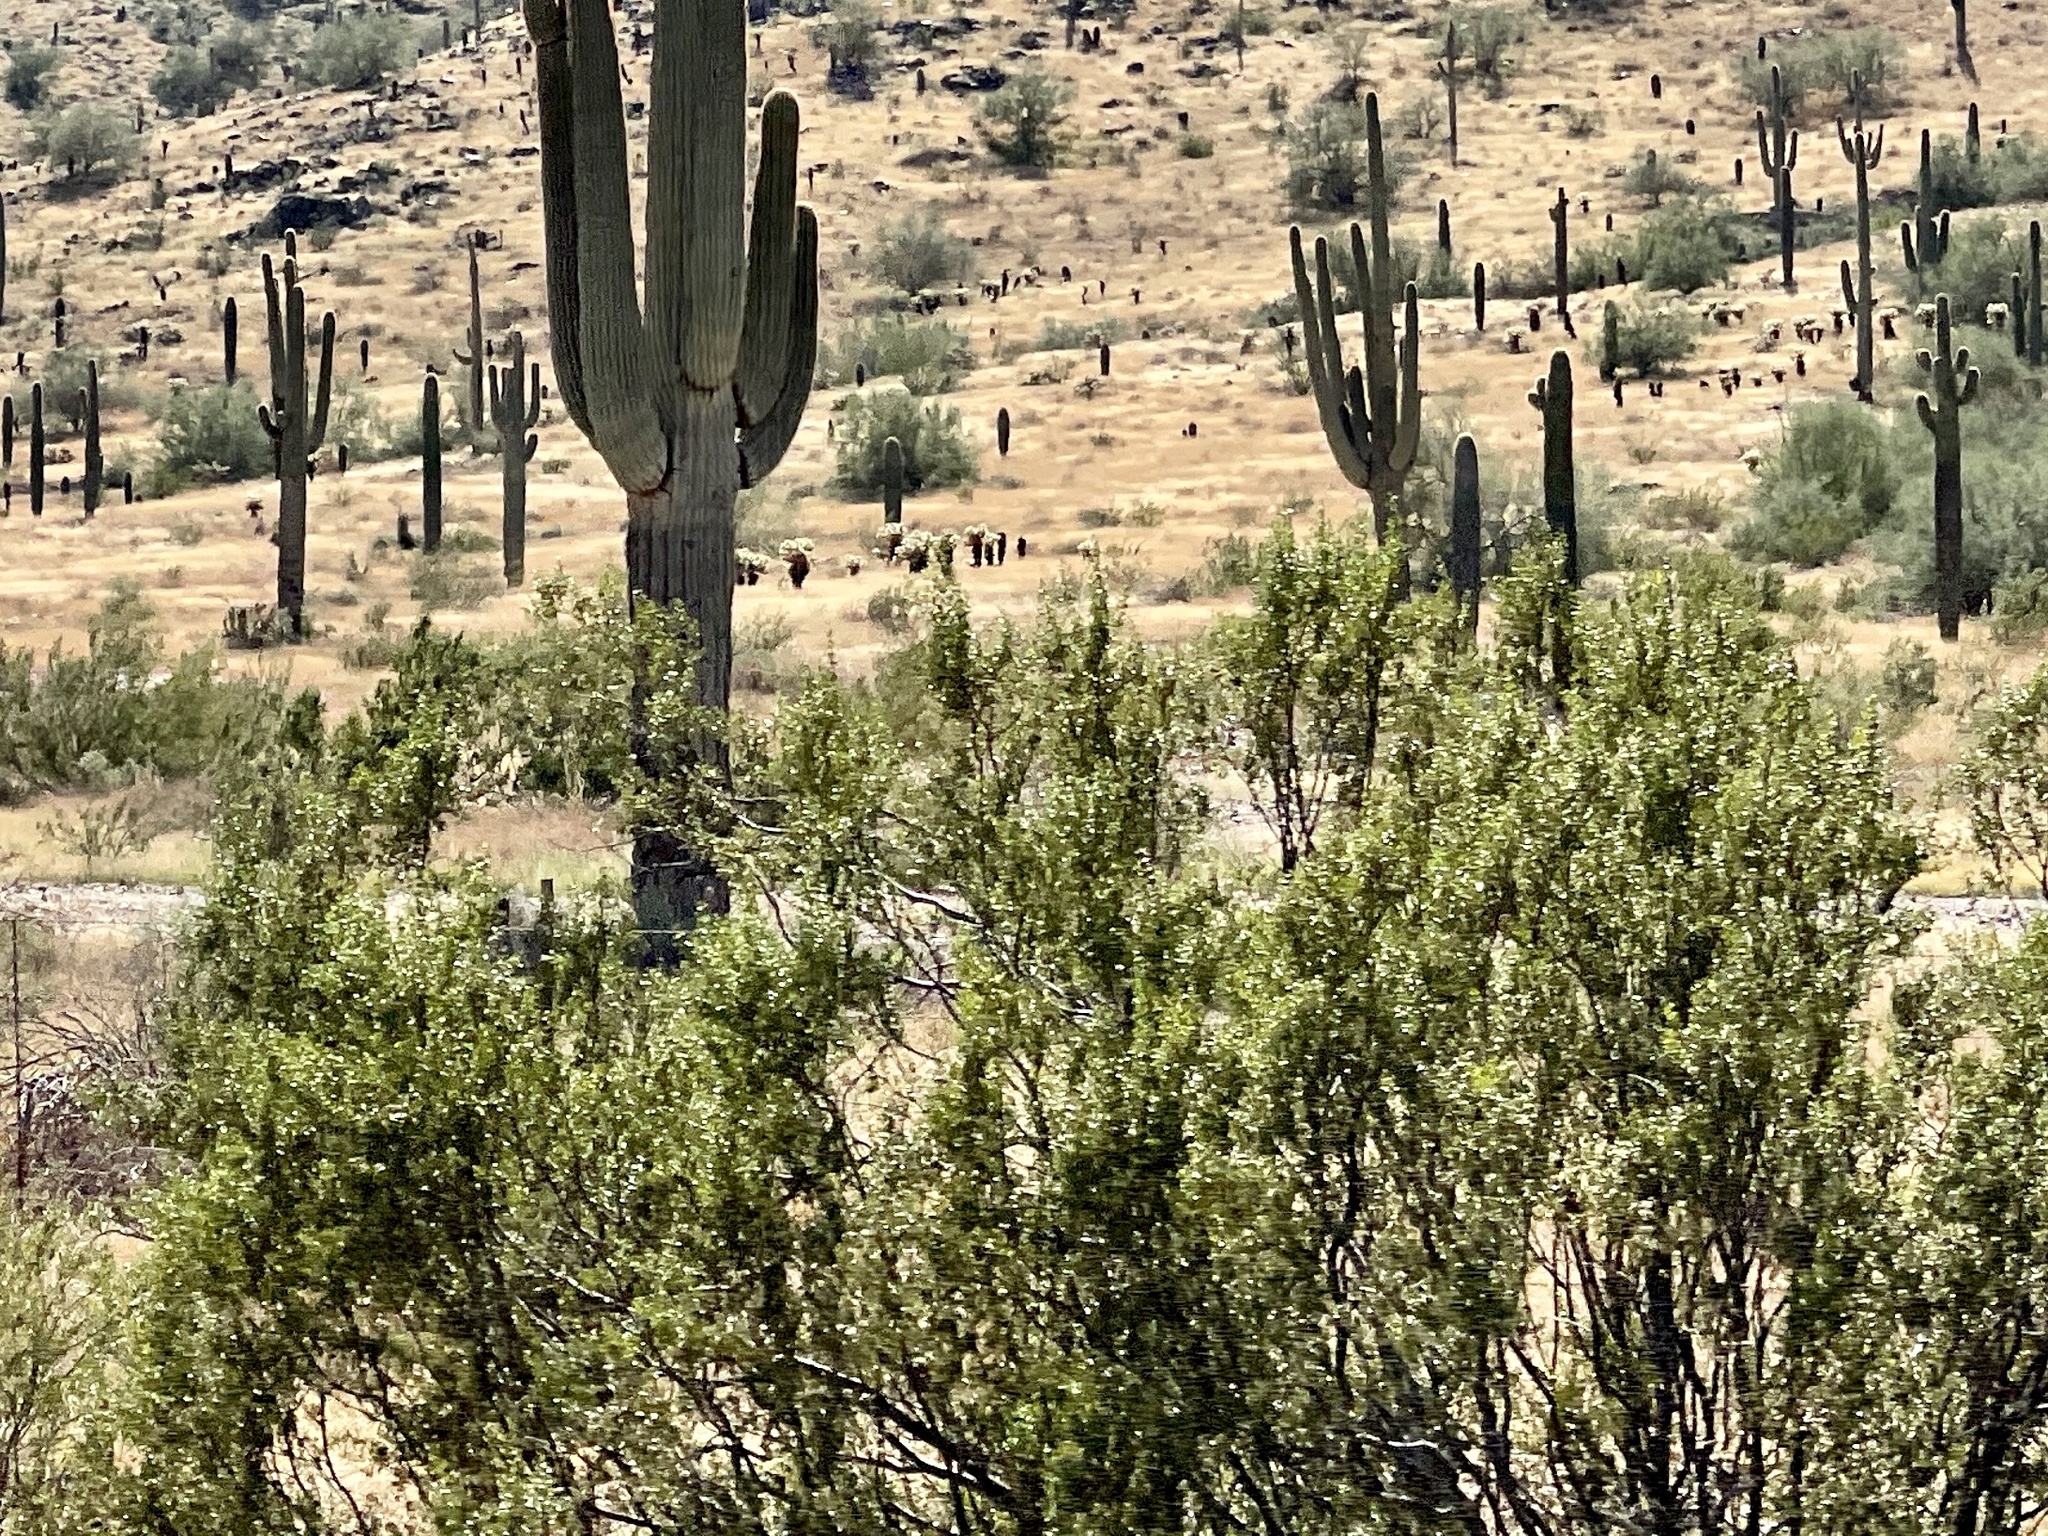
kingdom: Plantae
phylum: Tracheophyta
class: Magnoliopsida
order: Zygophyllales
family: Zygophyllaceae
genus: Larrea
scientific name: Larrea tridentata
